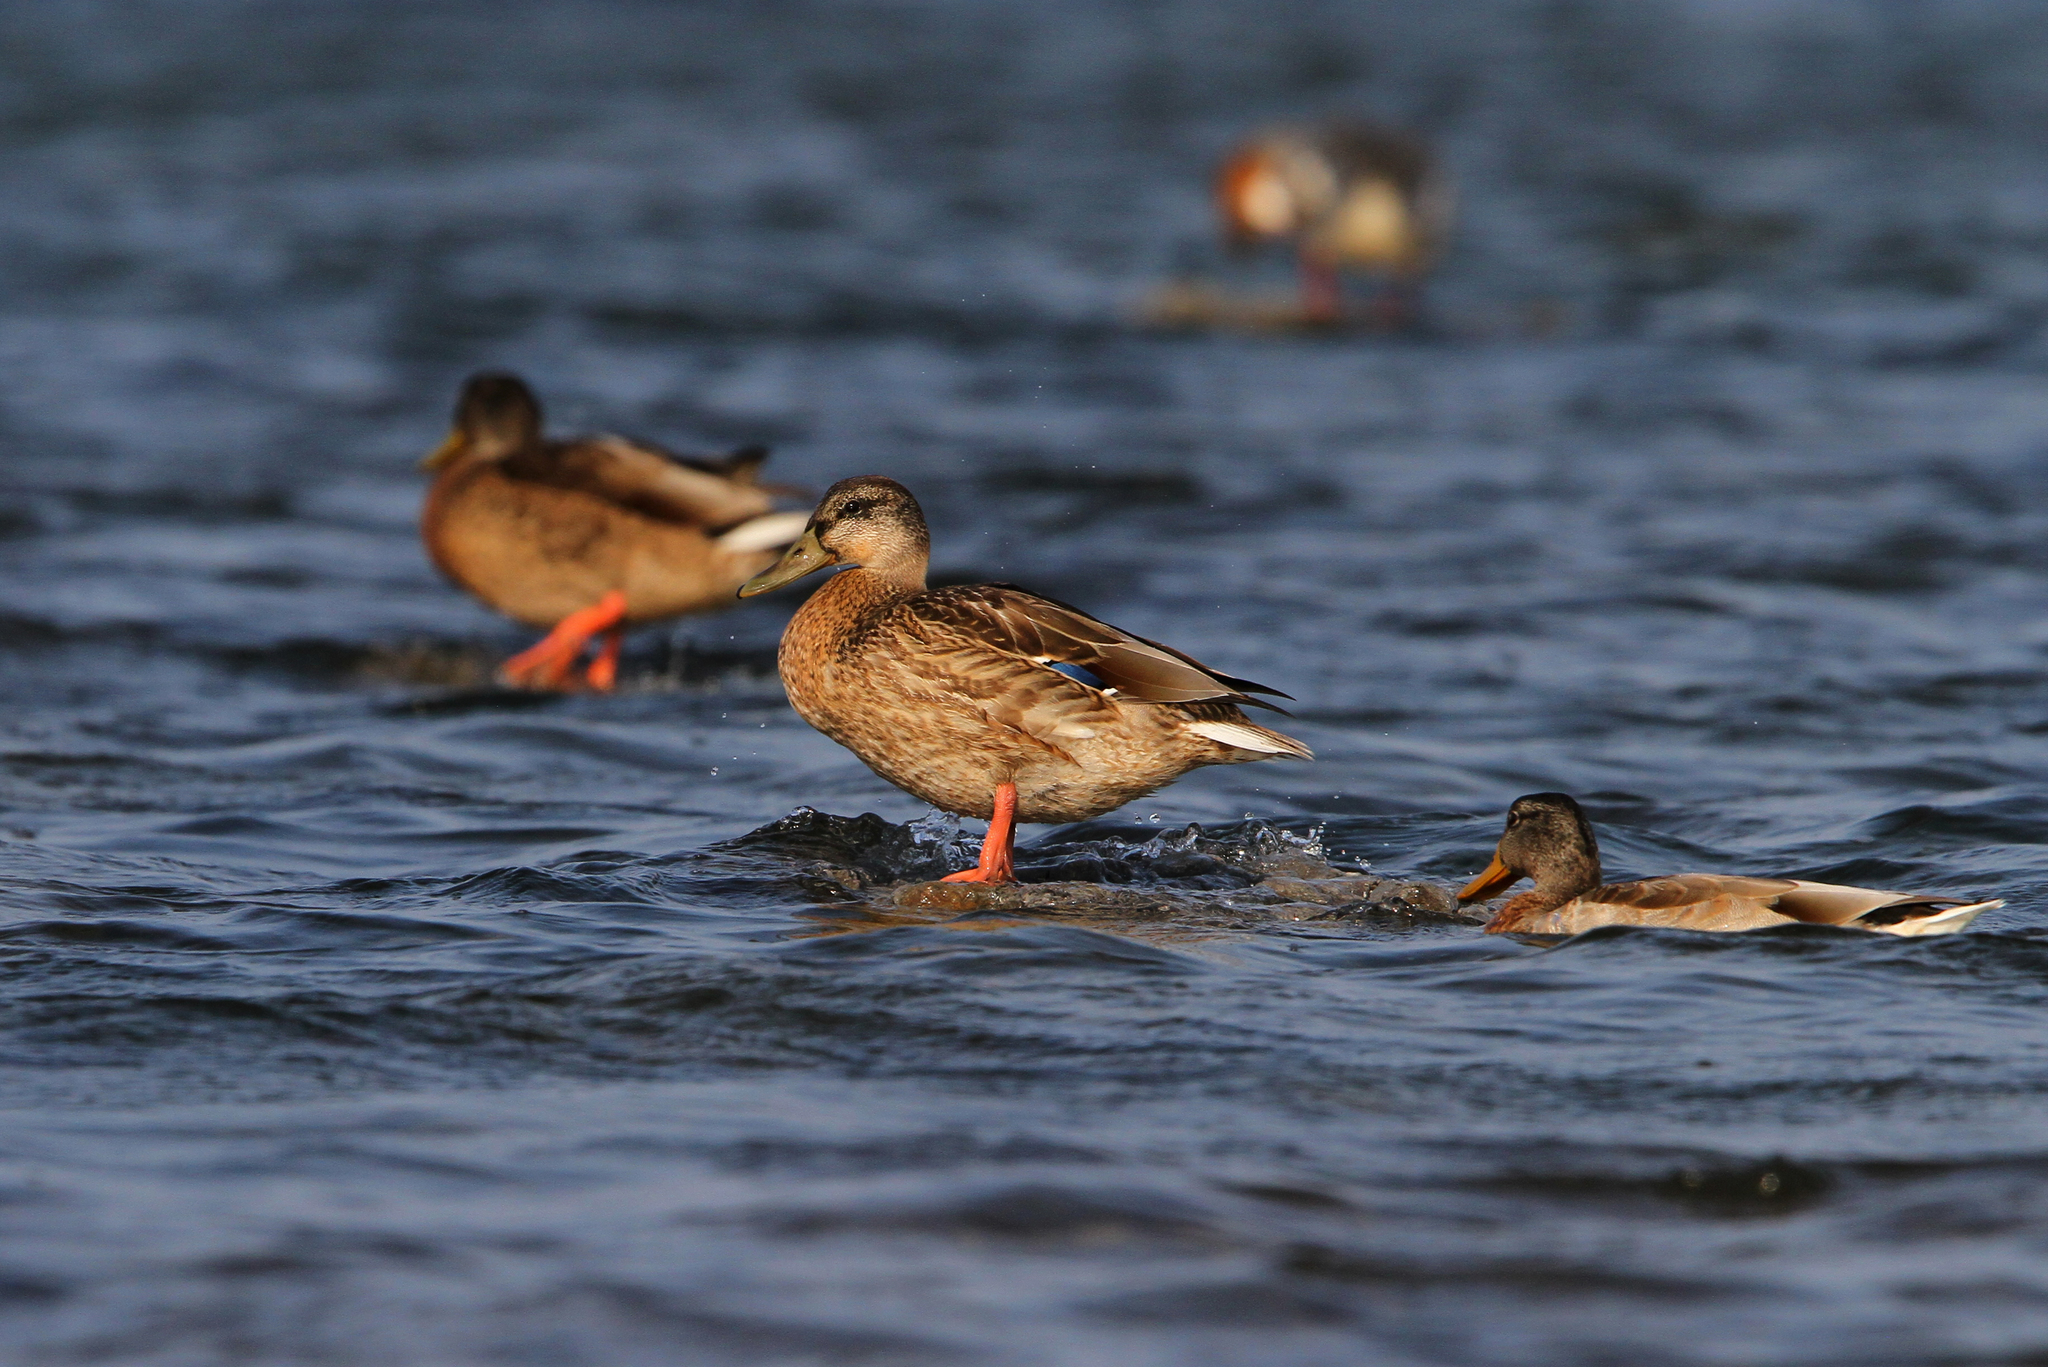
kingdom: Animalia
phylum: Chordata
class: Aves
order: Anseriformes
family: Anatidae
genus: Anas
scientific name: Anas platyrhynchos
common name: Mallard
